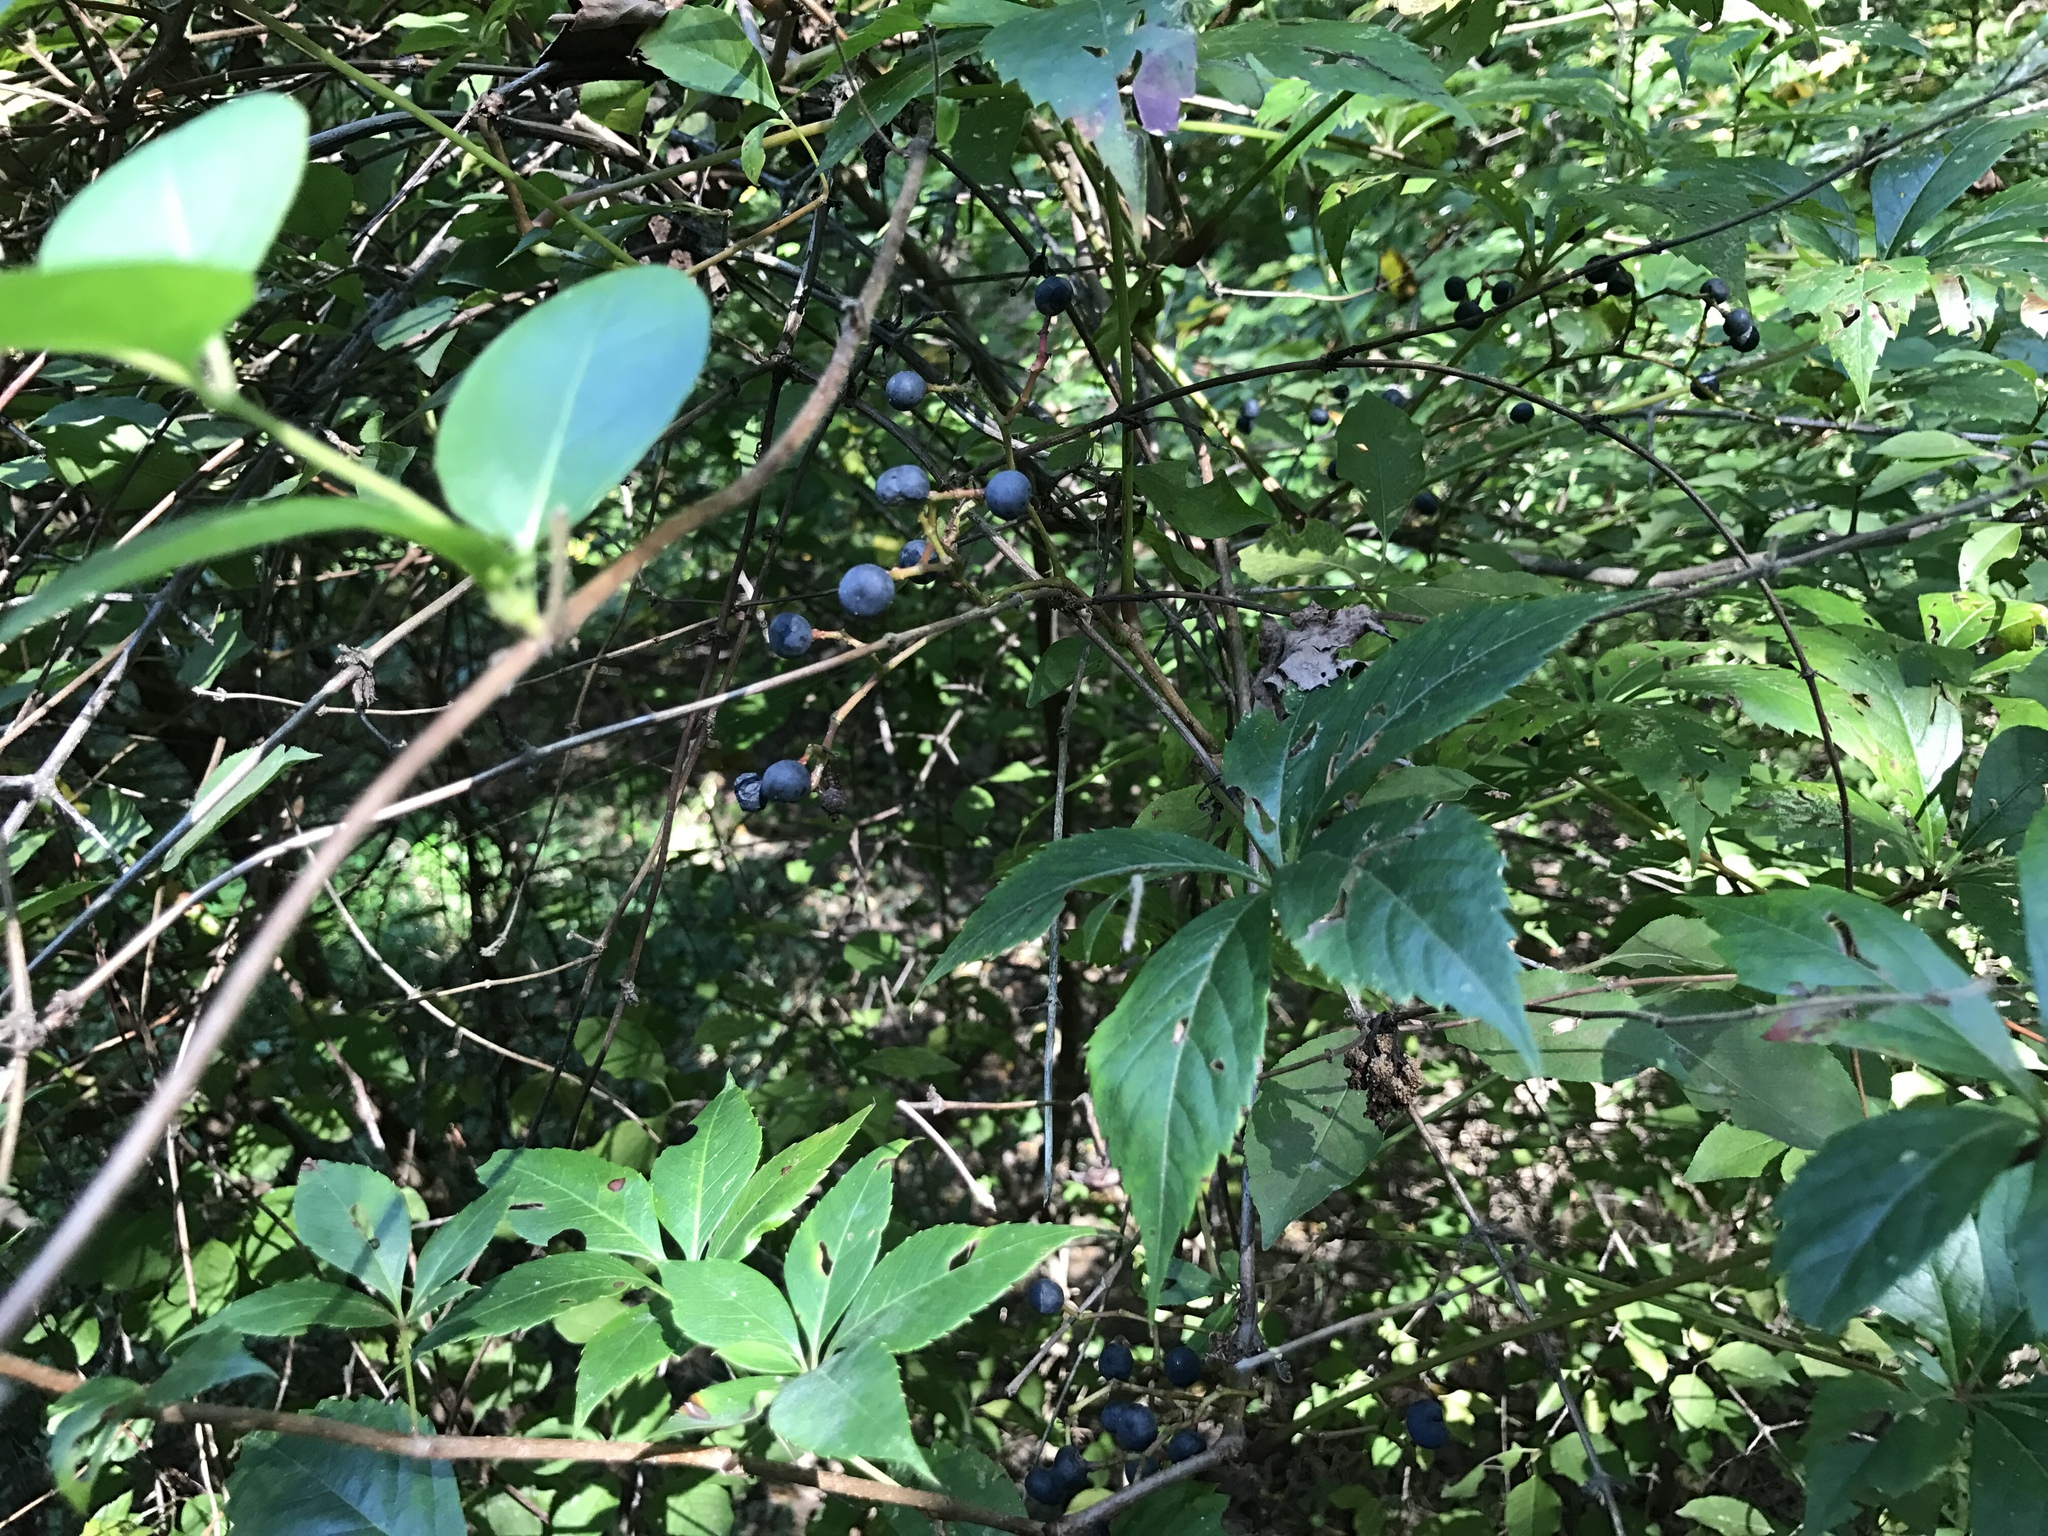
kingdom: Plantae
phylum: Tracheophyta
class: Magnoliopsida
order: Vitales
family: Vitaceae
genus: Parthenocissus
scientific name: Parthenocissus quinquefolia
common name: Virginia-creeper
